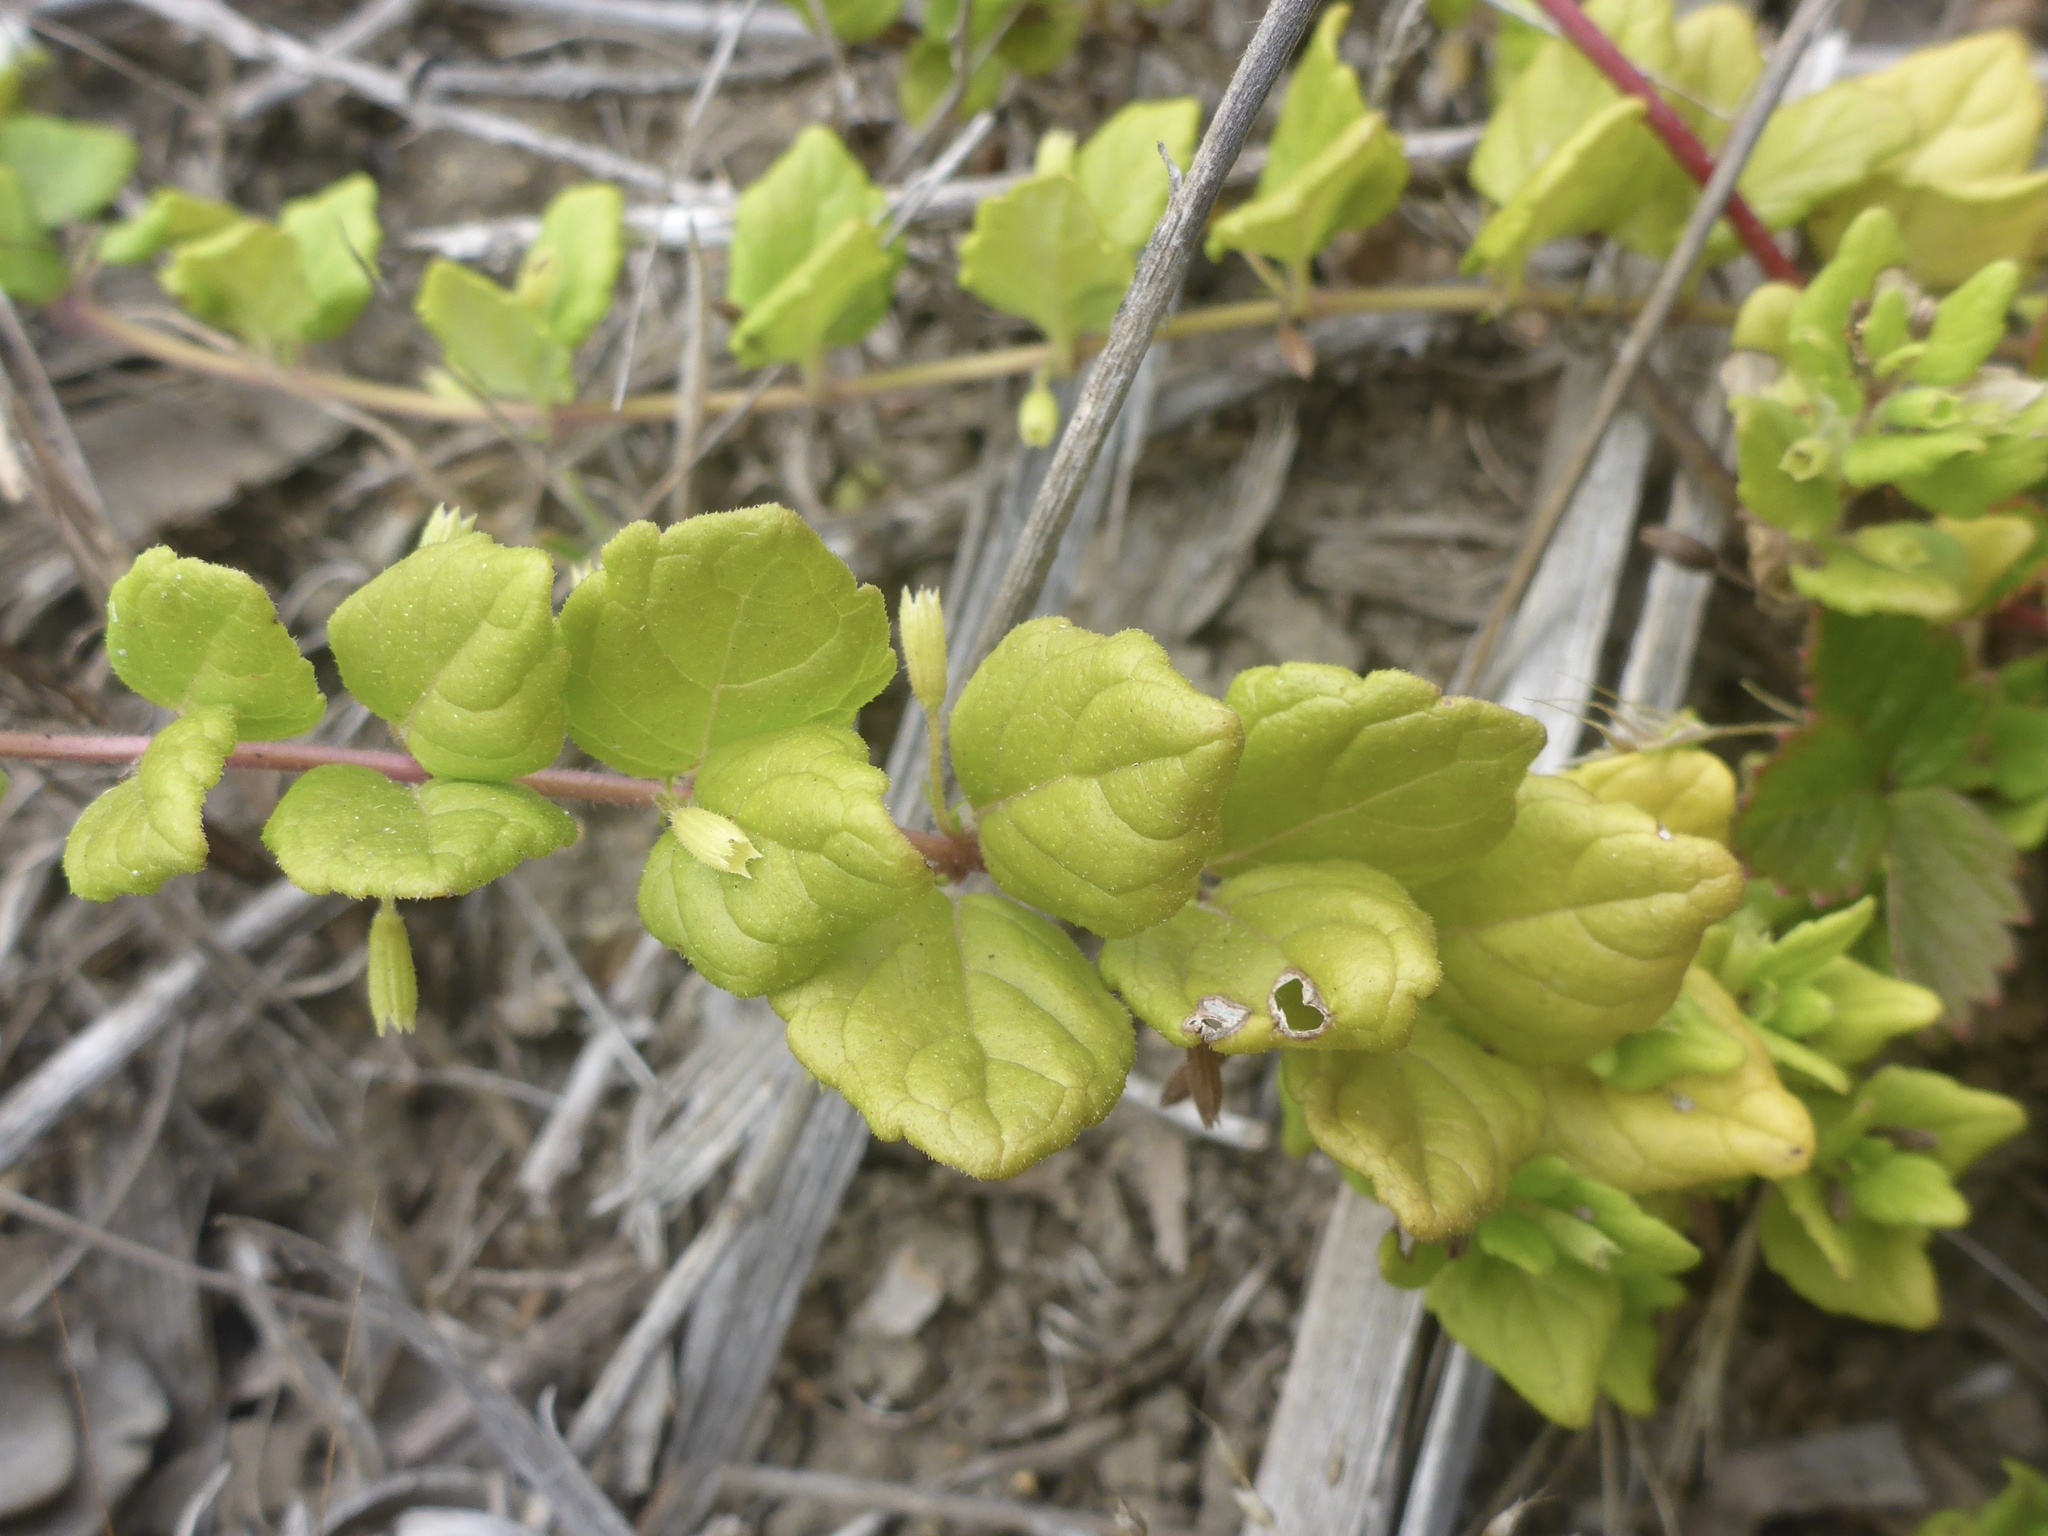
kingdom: Plantae
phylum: Tracheophyta
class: Magnoliopsida
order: Lamiales
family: Lamiaceae
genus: Micromeria
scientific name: Micromeria douglasii
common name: Yerba buena
